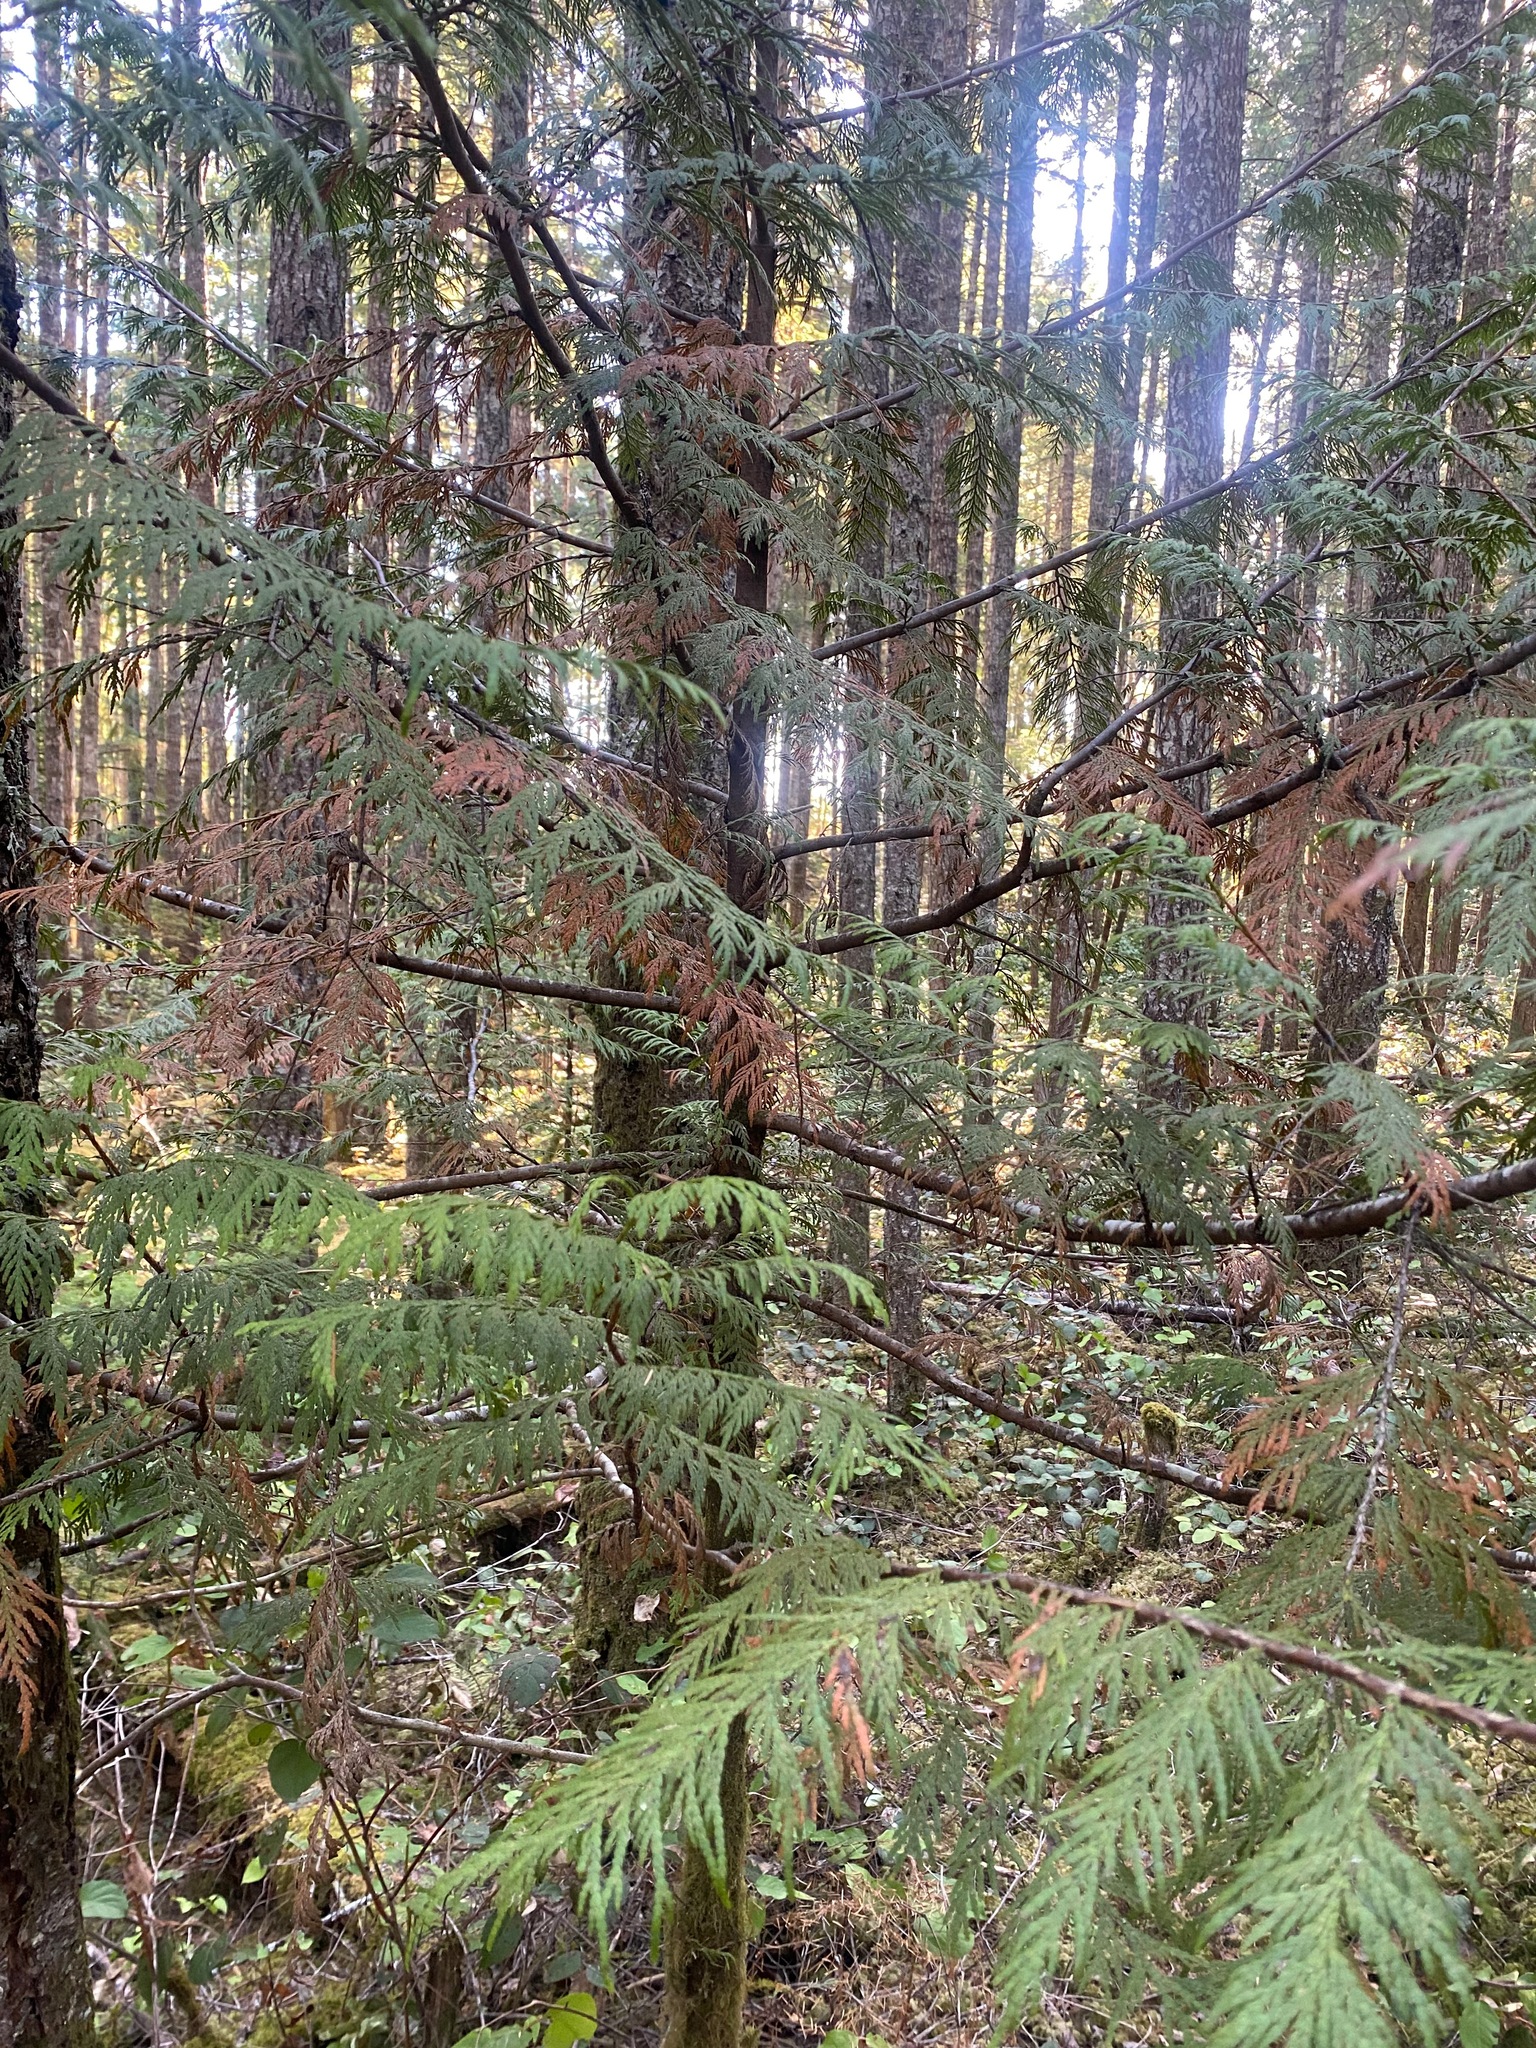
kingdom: Plantae
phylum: Tracheophyta
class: Pinopsida
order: Pinales
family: Cupressaceae
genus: Thuja
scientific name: Thuja plicata
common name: Western red-cedar
